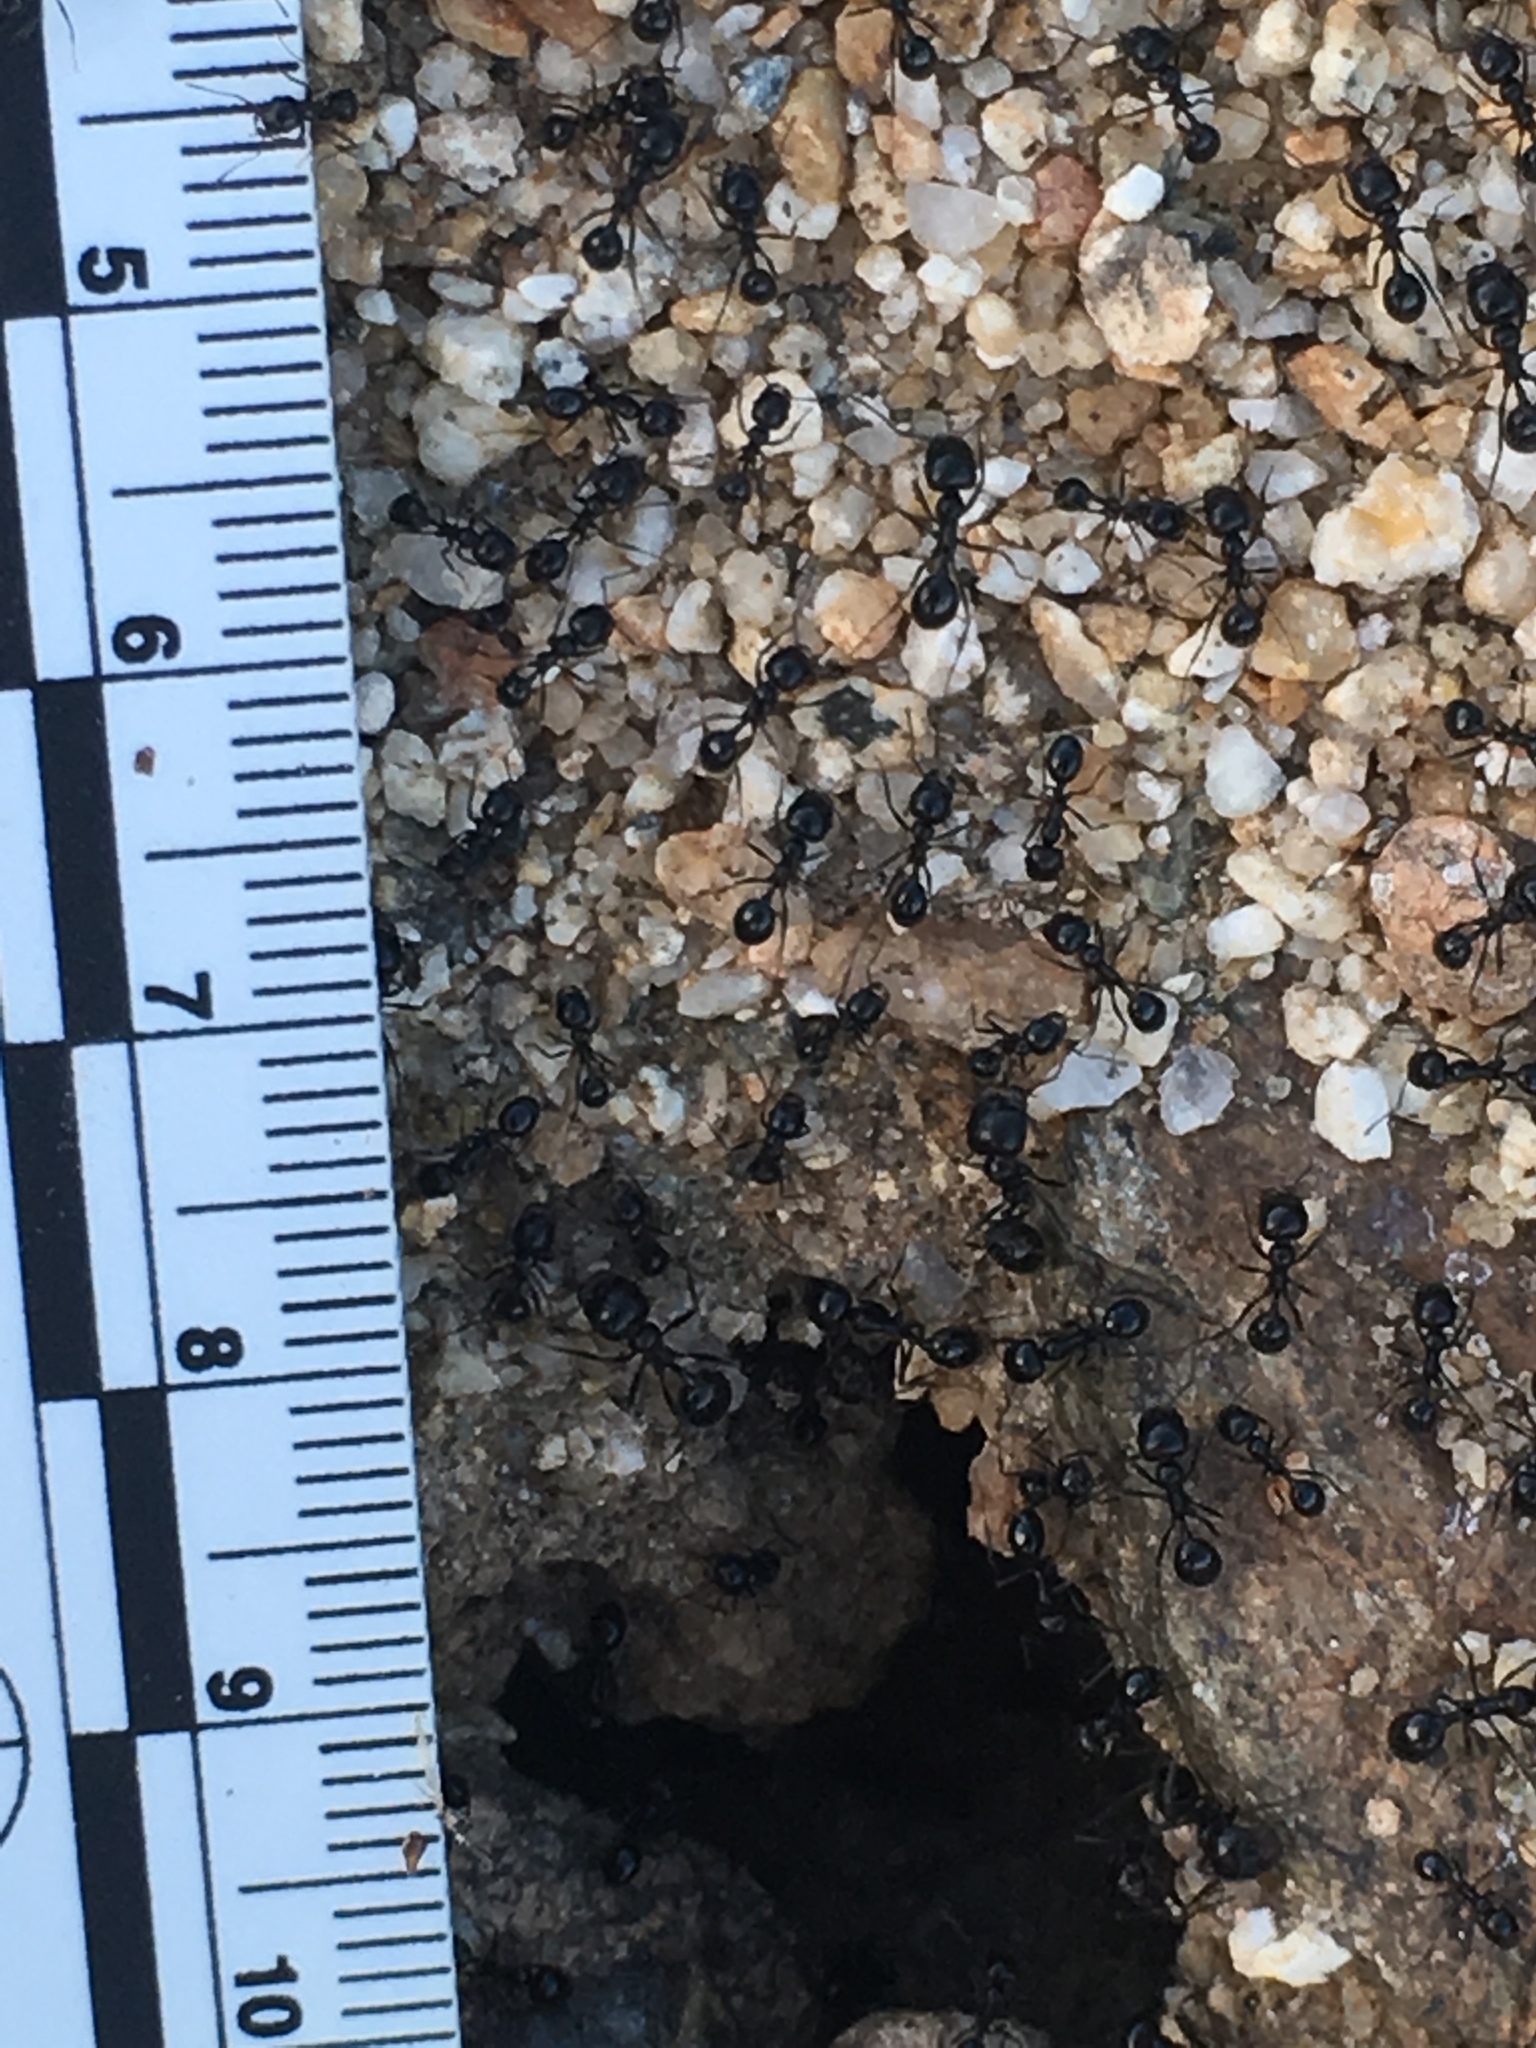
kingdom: Animalia
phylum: Arthropoda
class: Insecta
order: Hymenoptera
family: Formicidae
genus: Messor
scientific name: Messor pergandei
